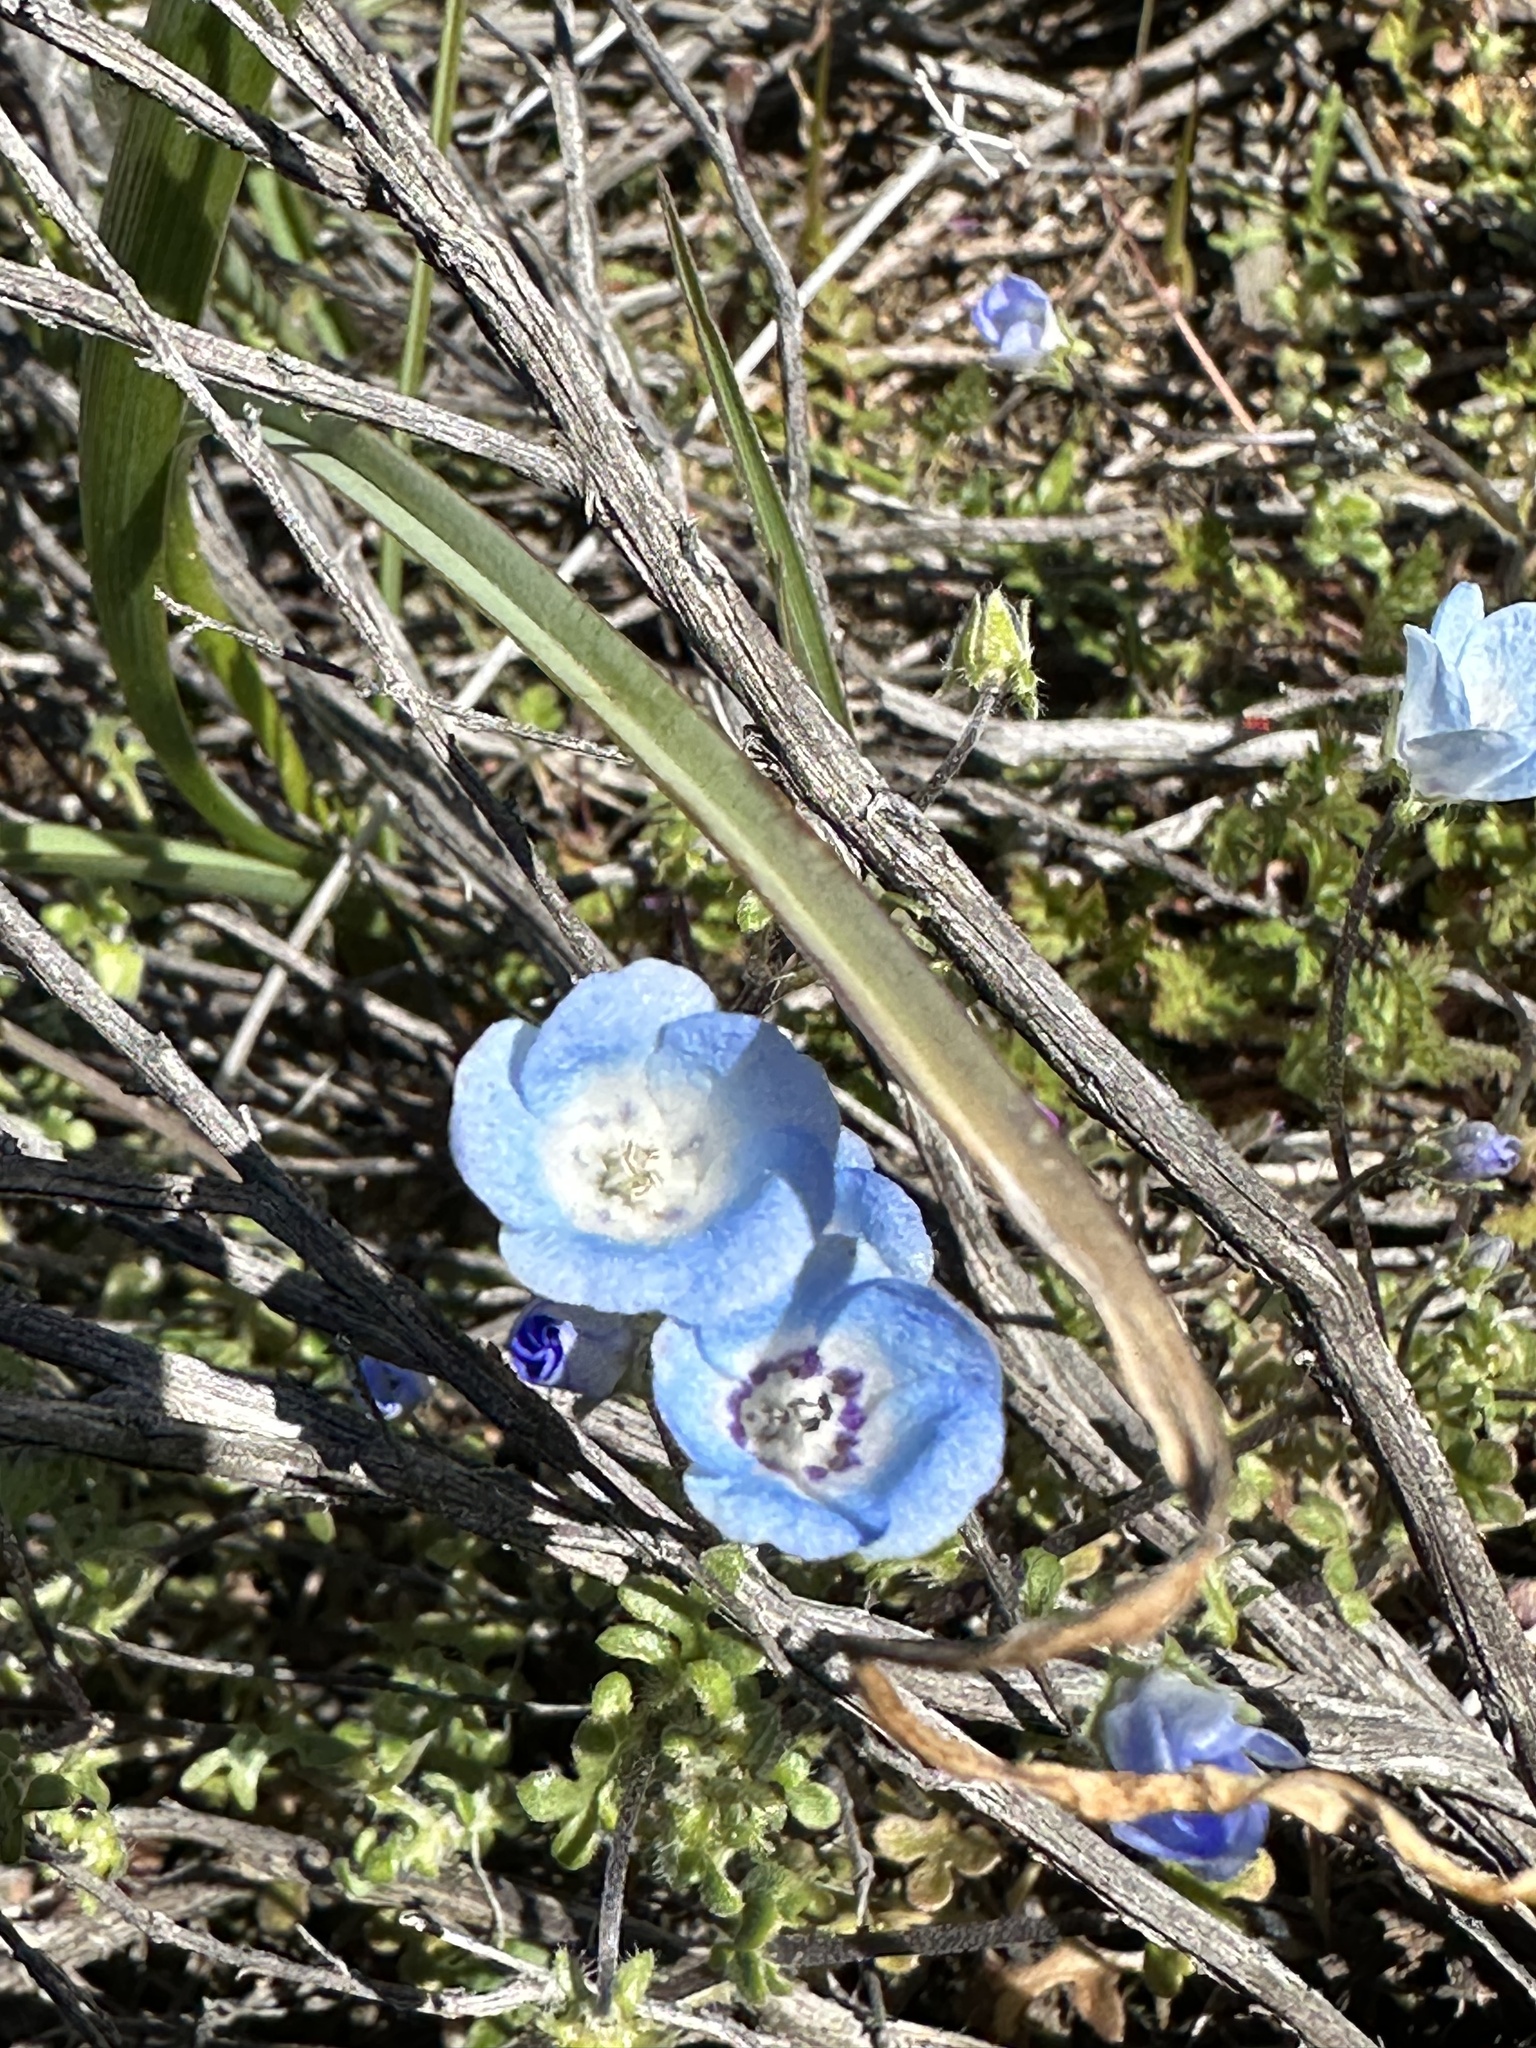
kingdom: Plantae
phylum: Tracheophyta
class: Magnoliopsida
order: Boraginales
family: Hydrophyllaceae
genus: Nemophila
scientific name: Nemophila menziesii
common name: Baby's-blue-eyes
